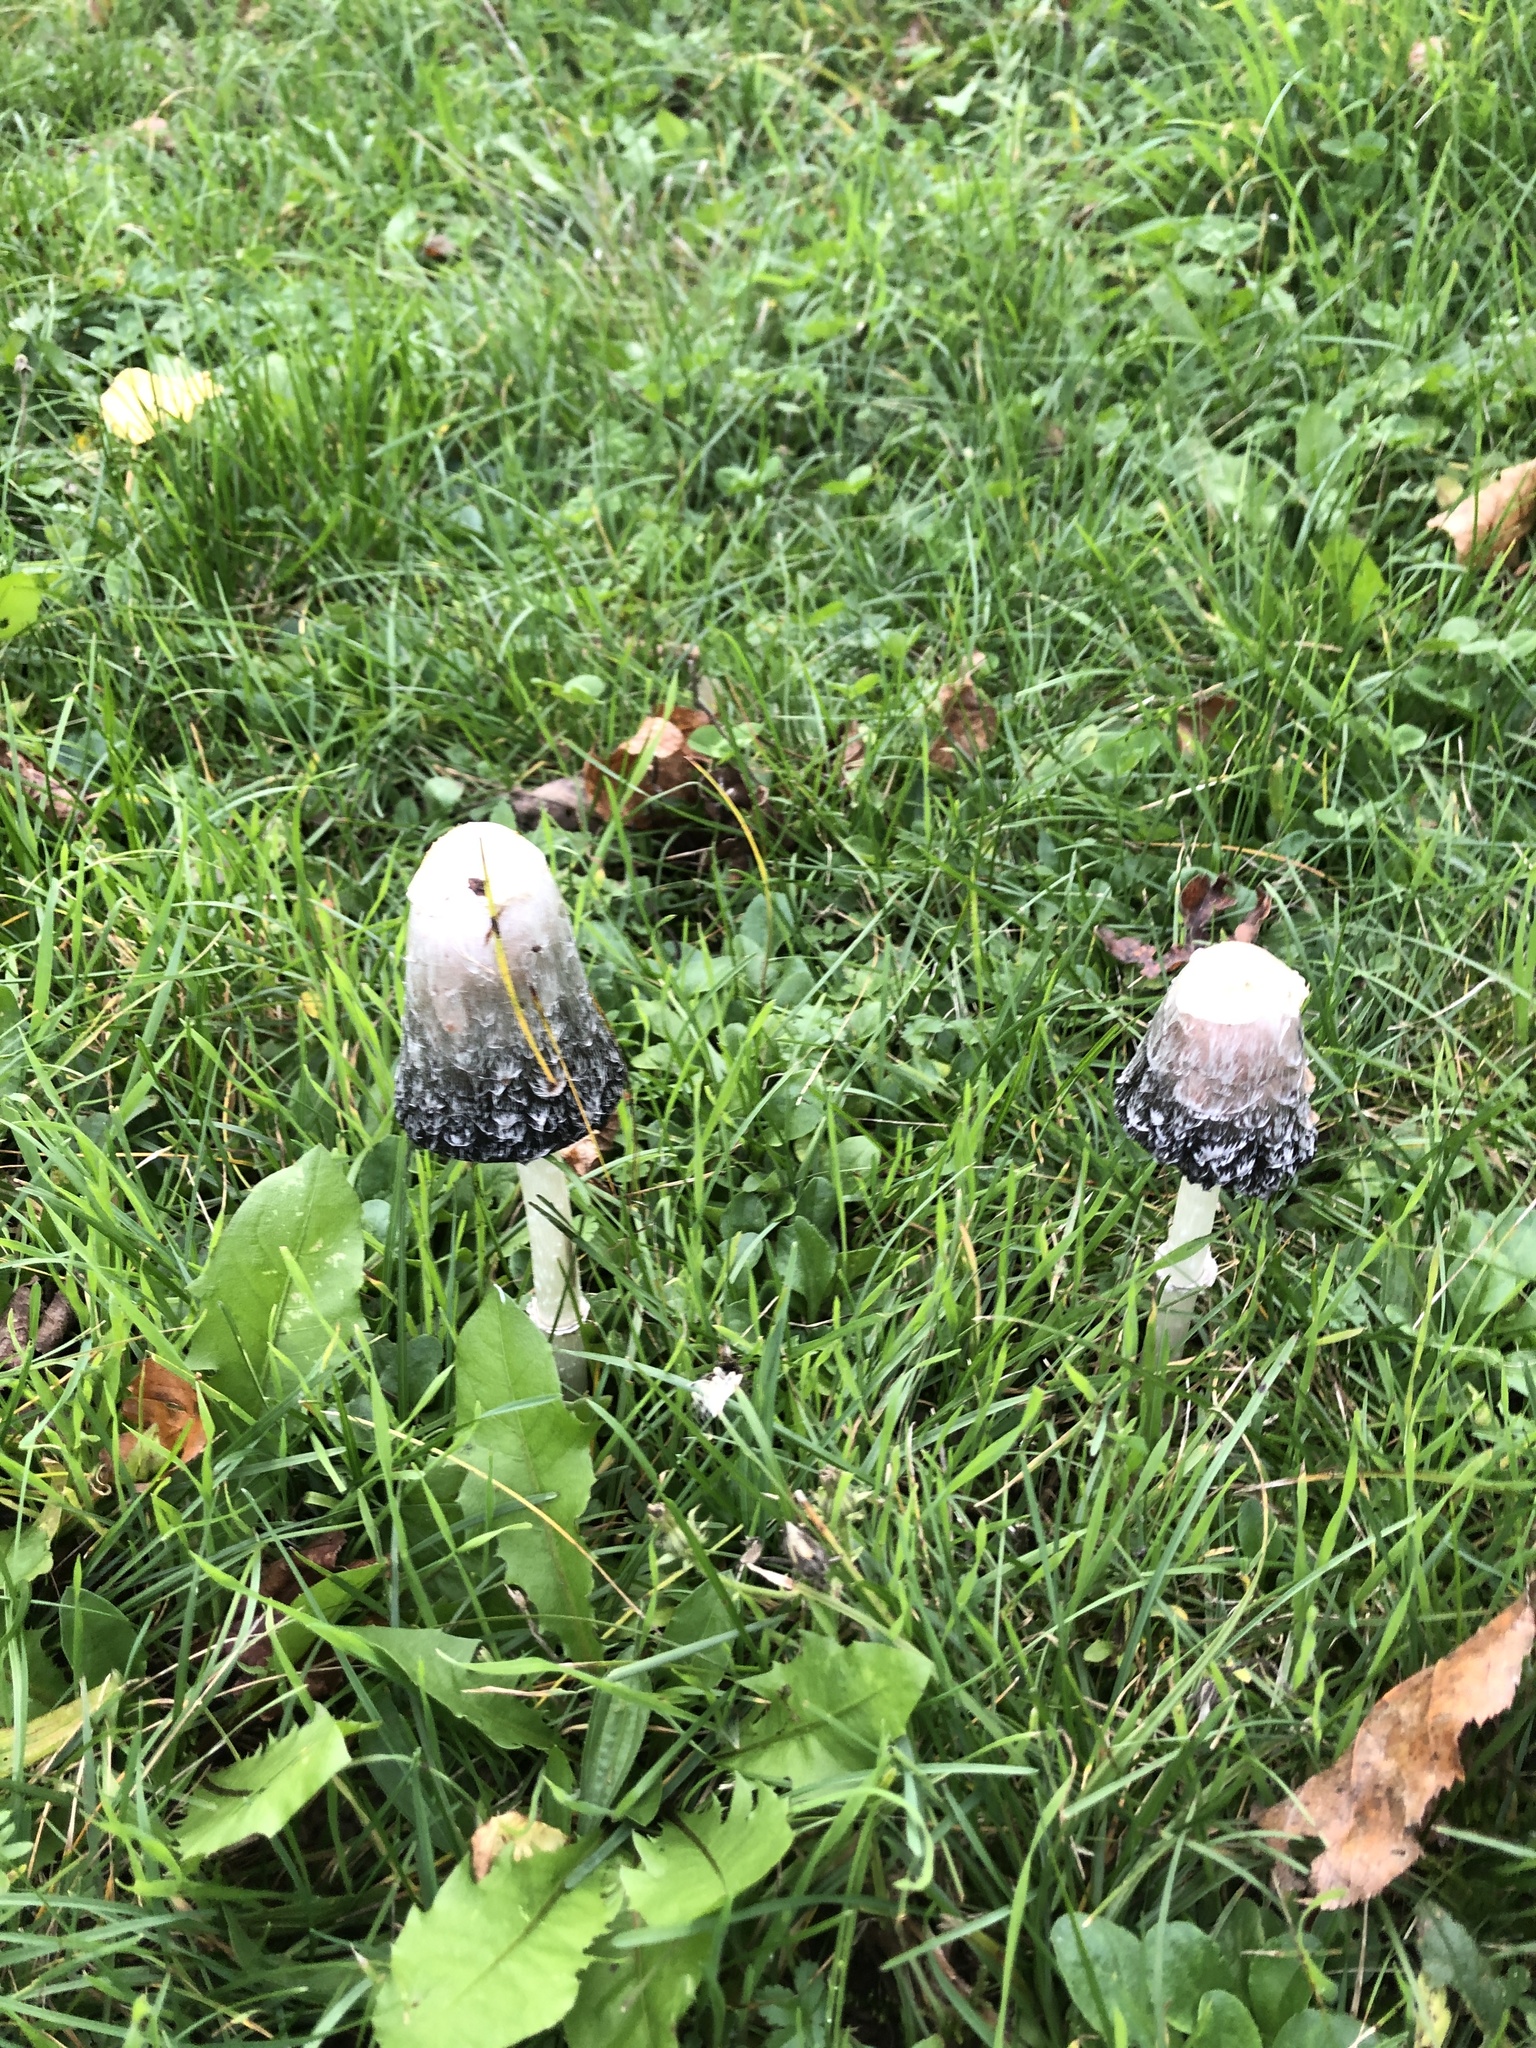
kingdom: Fungi
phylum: Basidiomycota
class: Agaricomycetes
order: Agaricales
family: Agaricaceae
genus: Coprinus
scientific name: Coprinus comatus
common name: Lawyer's wig
